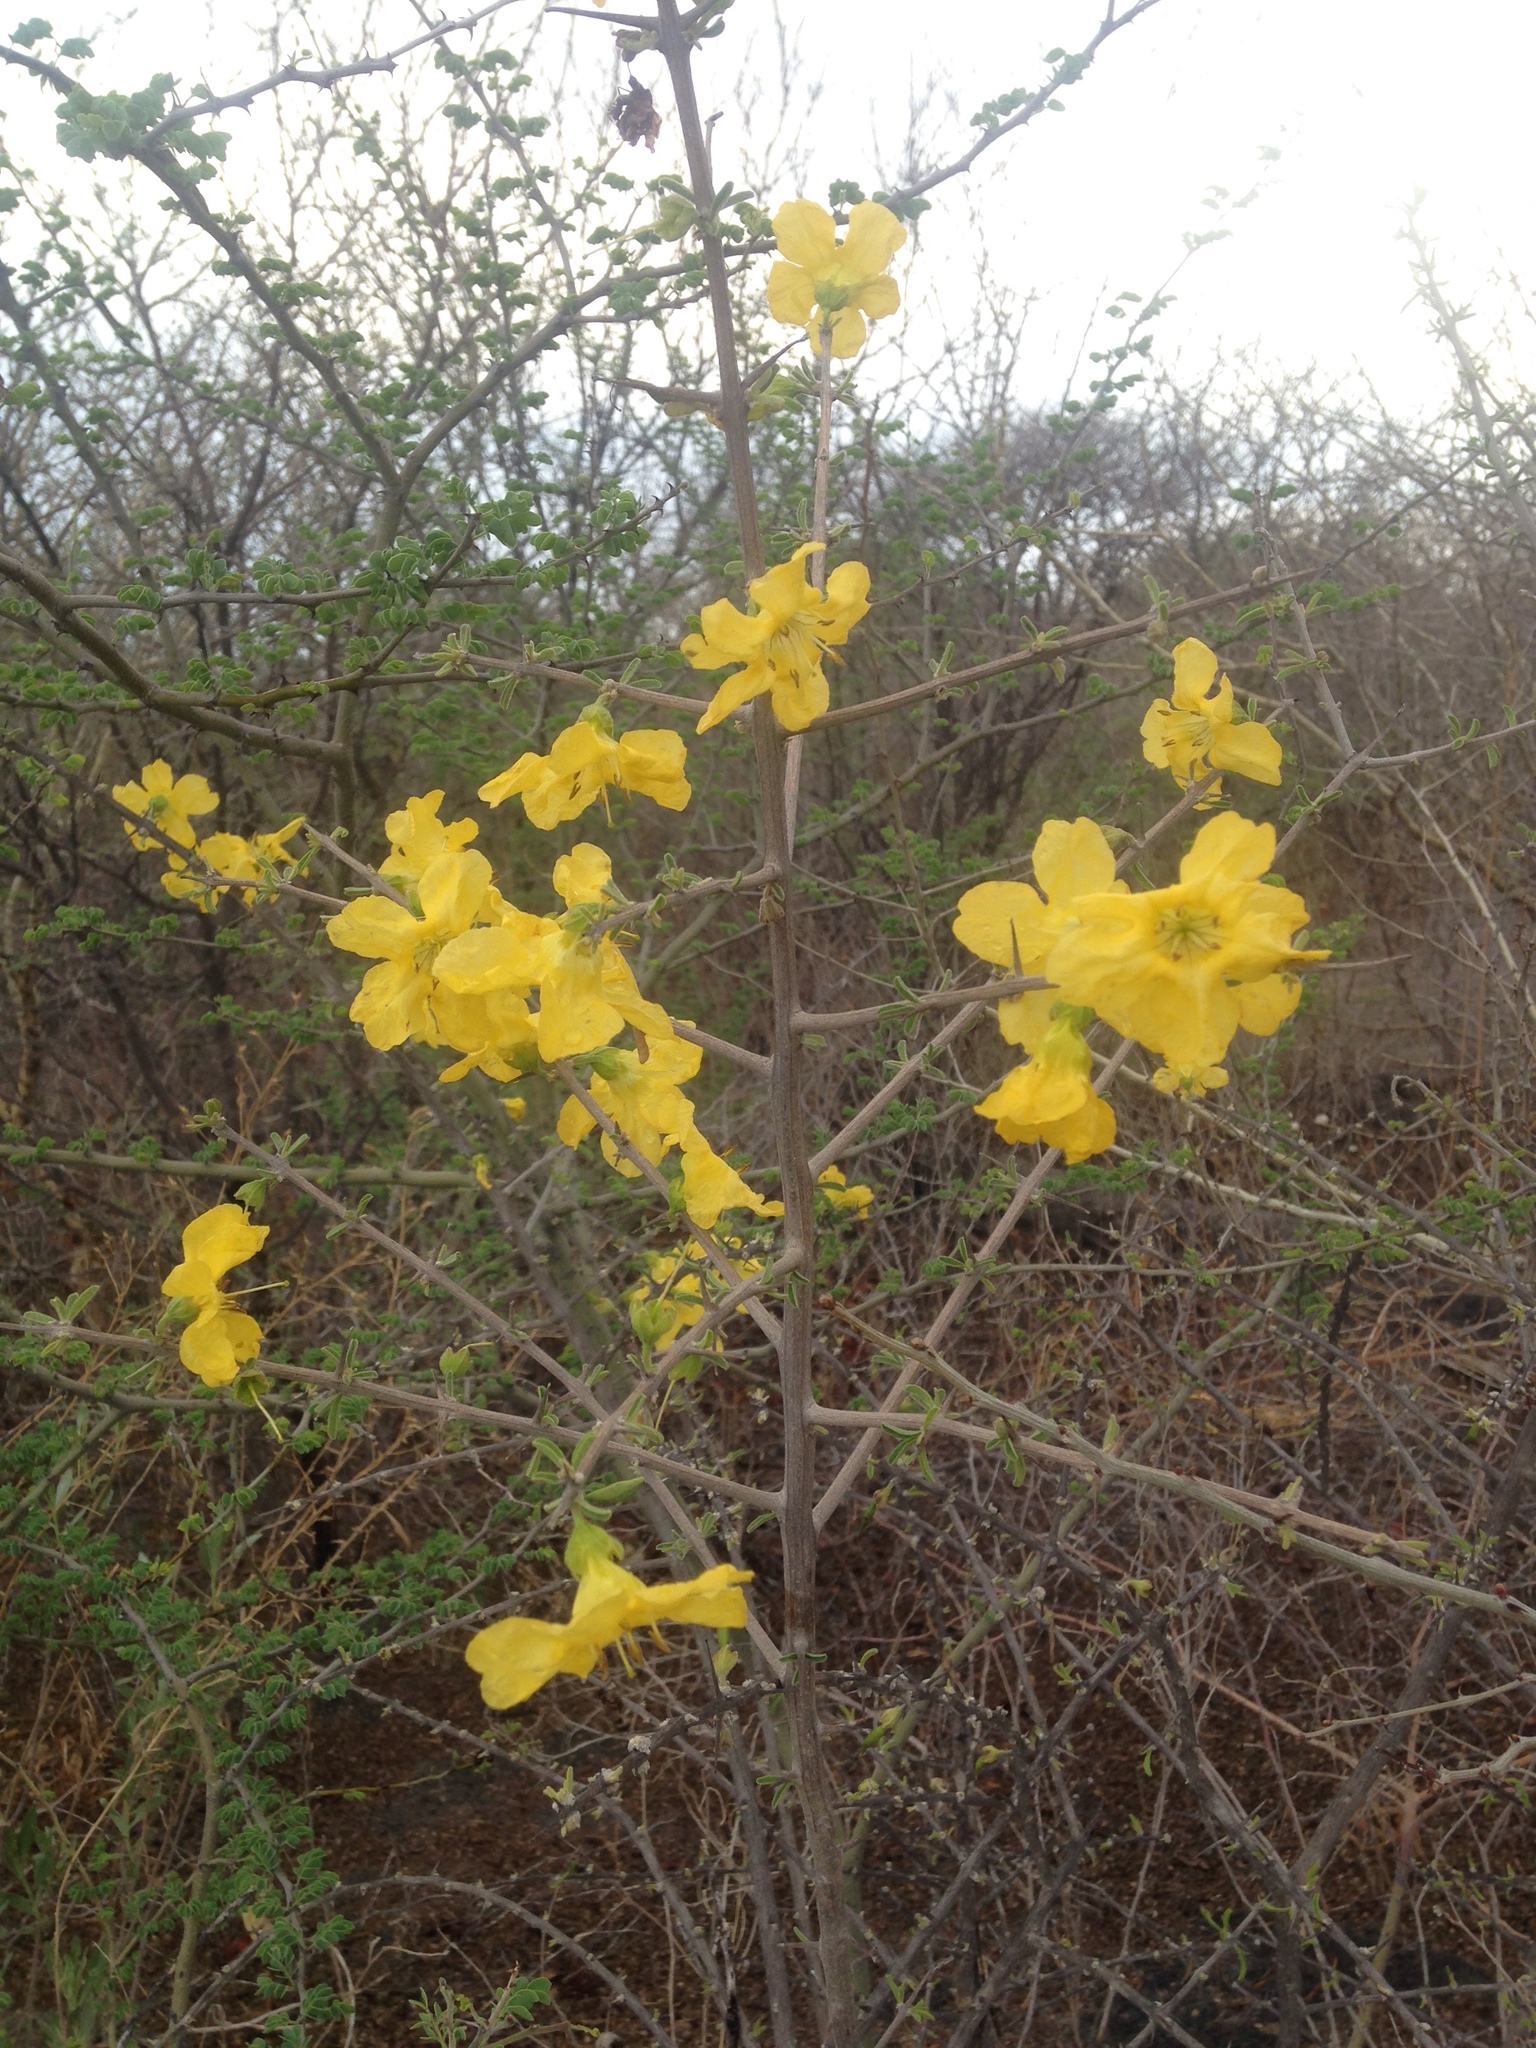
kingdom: Plantae
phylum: Tracheophyta
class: Magnoliopsida
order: Lamiales
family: Bignoniaceae
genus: Rhigozum
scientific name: Rhigozum brevispinosum
